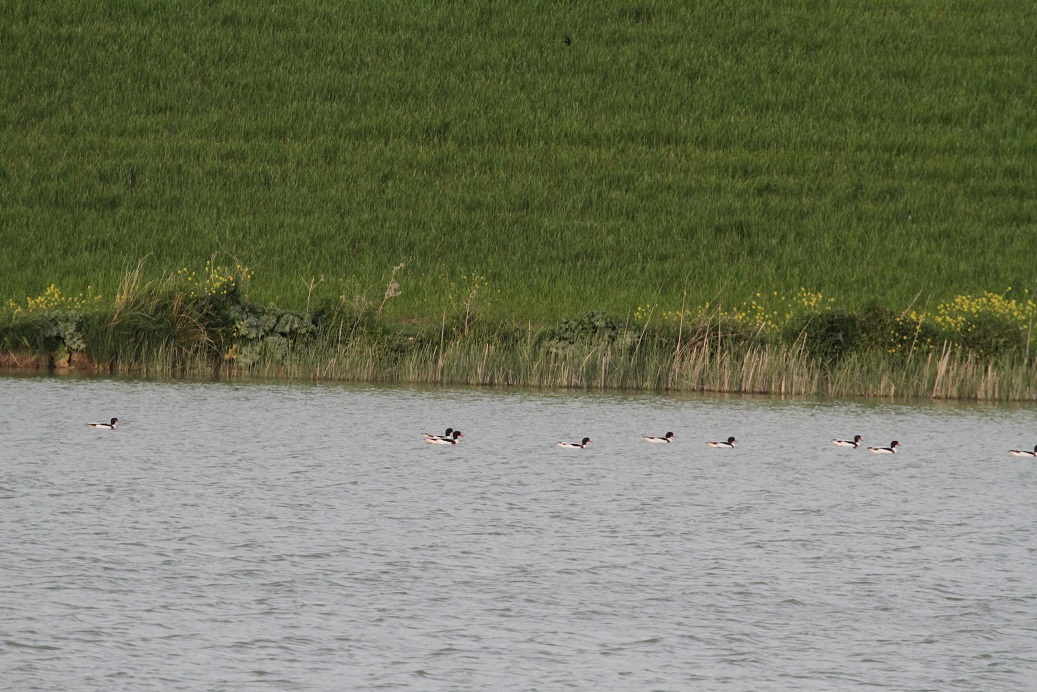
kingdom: Animalia
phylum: Chordata
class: Aves
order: Anseriformes
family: Anatidae
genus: Tadorna
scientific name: Tadorna tadorna
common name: Common shelduck
